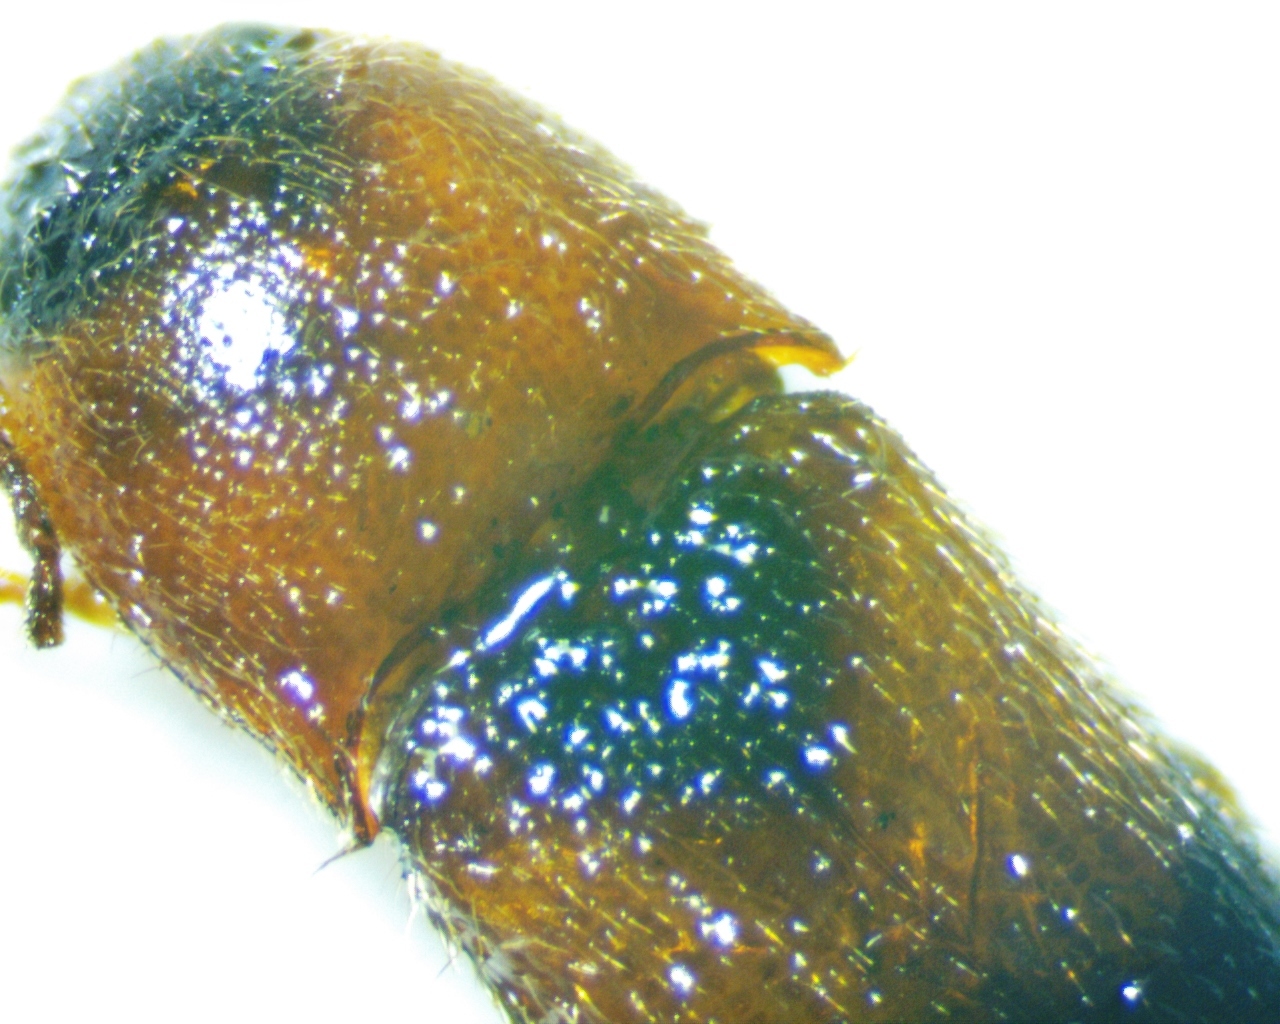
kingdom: Animalia
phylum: Arthropoda
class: Insecta
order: Coleoptera
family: Elateridae
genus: Ampedus
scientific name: Ampedus areolatus
